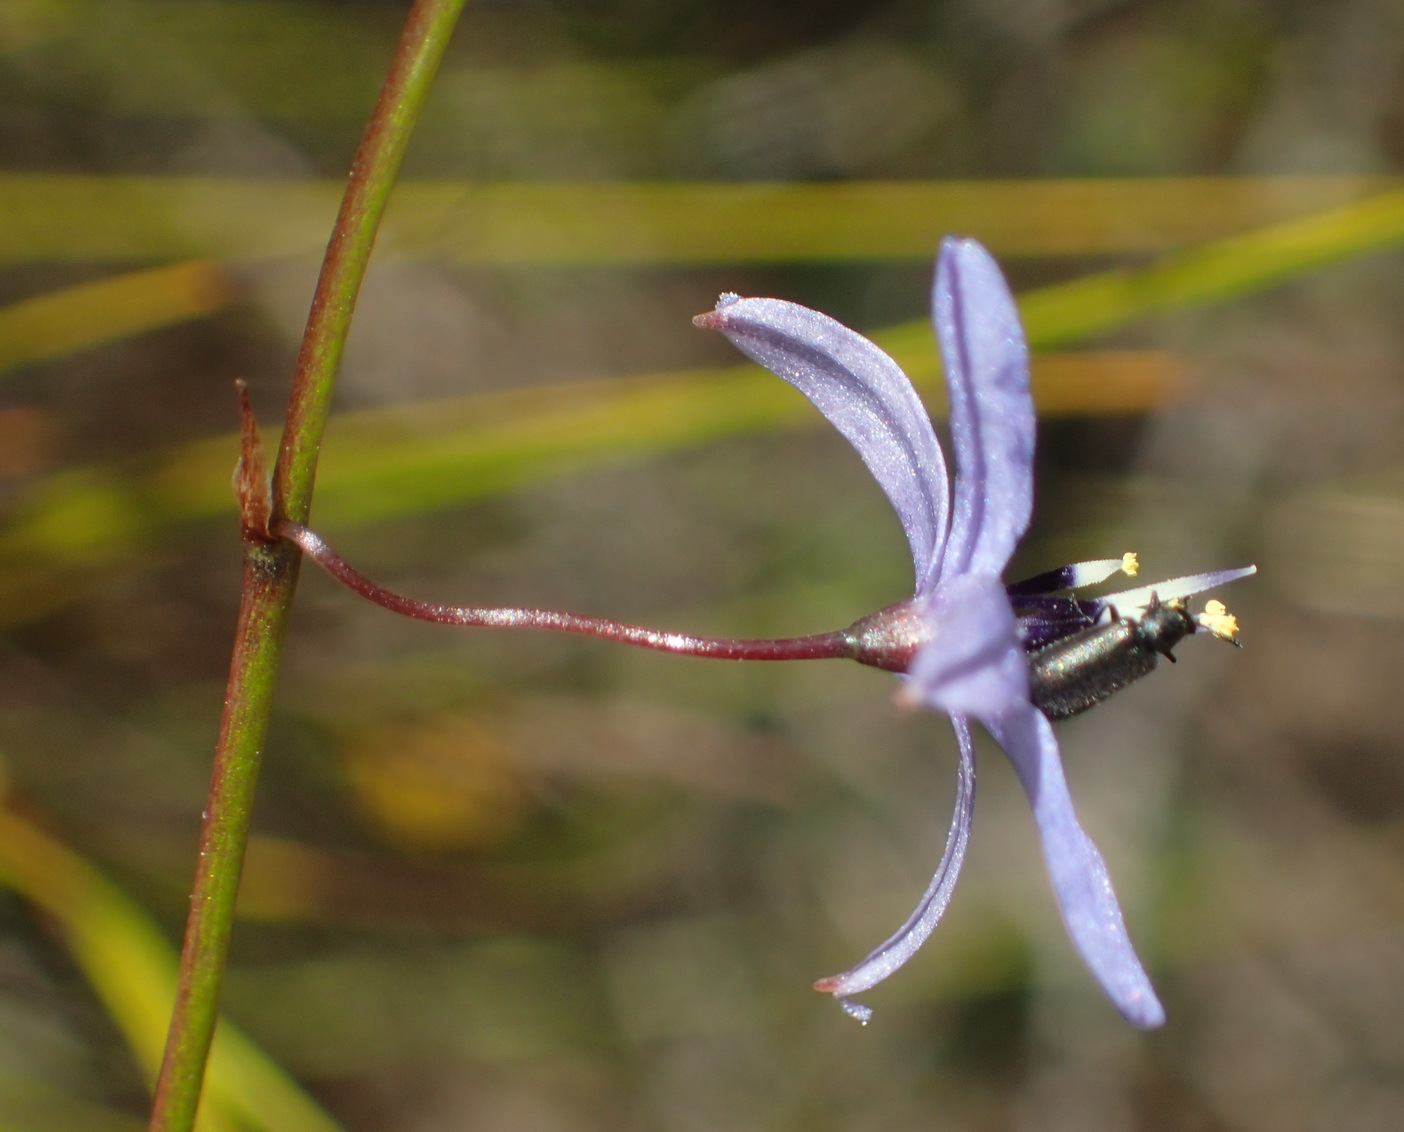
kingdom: Plantae
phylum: Tracheophyta
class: Liliopsida
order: Asparagales
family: Asphodelaceae
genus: Caesia
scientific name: Caesia contorta
